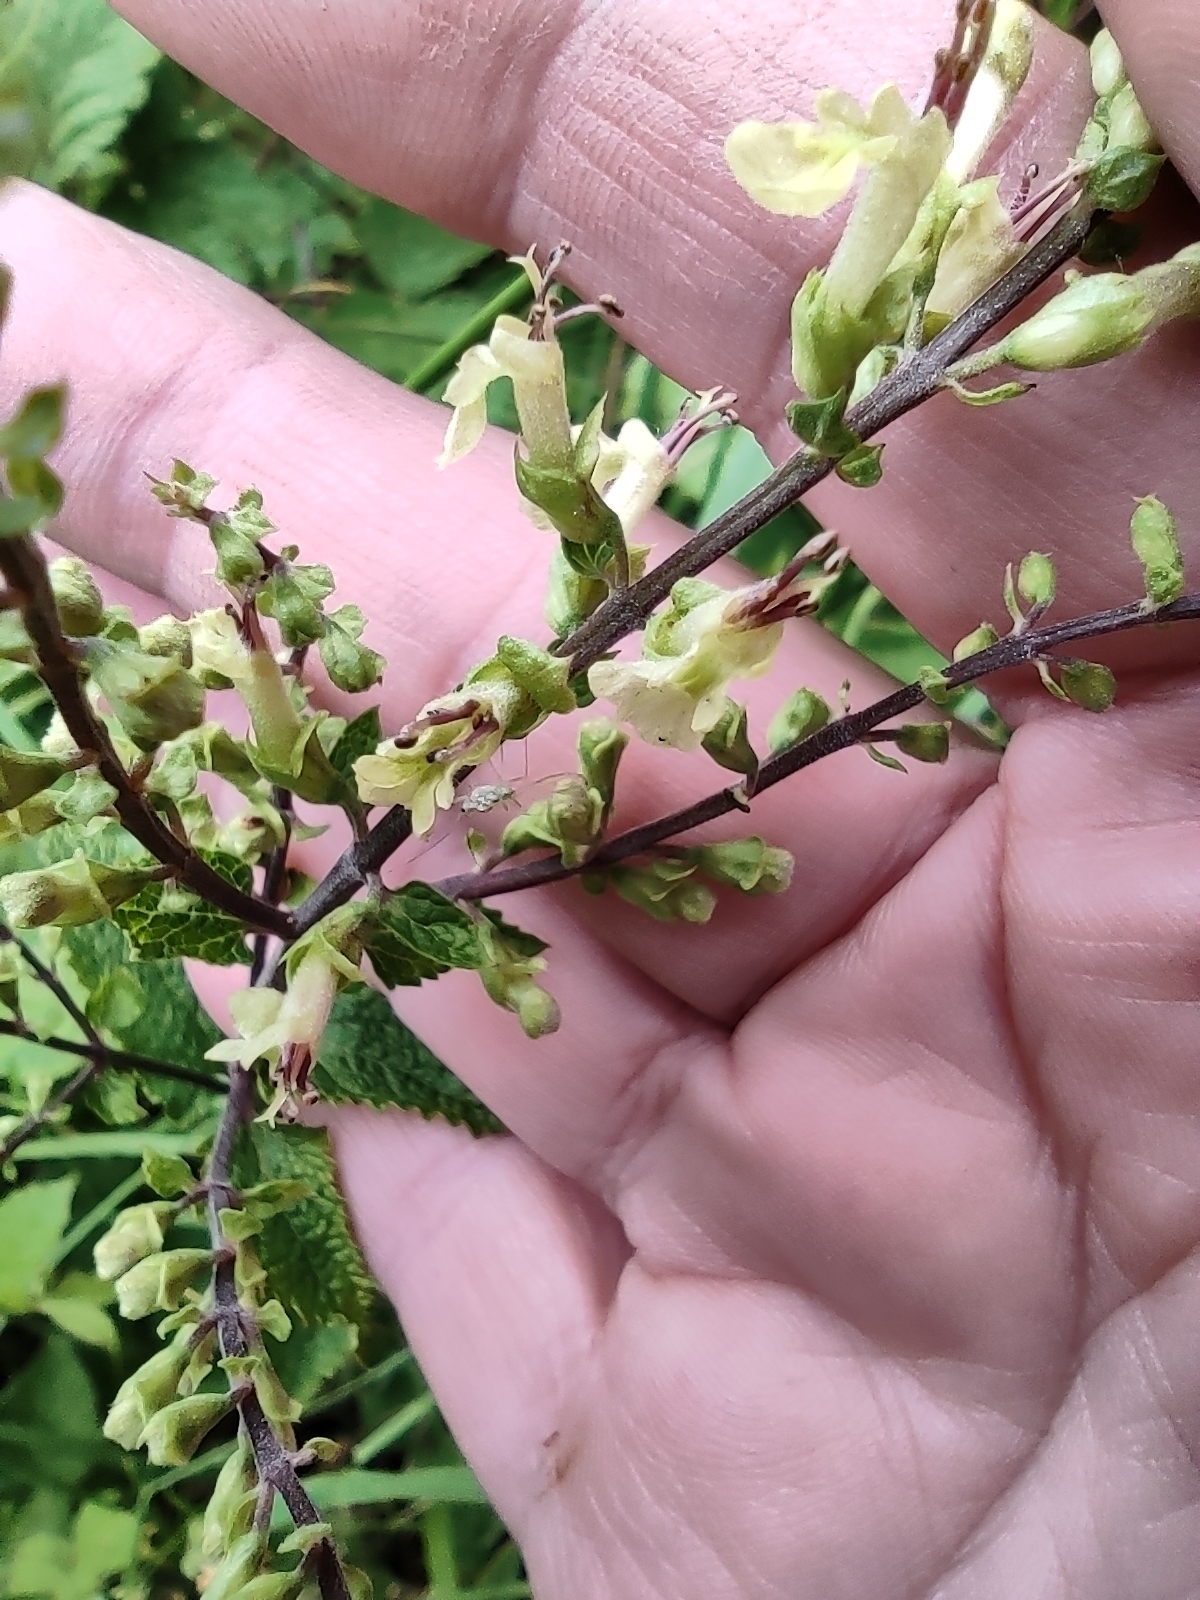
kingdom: Plantae
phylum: Tracheophyta
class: Magnoliopsida
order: Lamiales
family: Lamiaceae
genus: Teucrium
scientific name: Teucrium scorodonia
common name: Woodland germander
